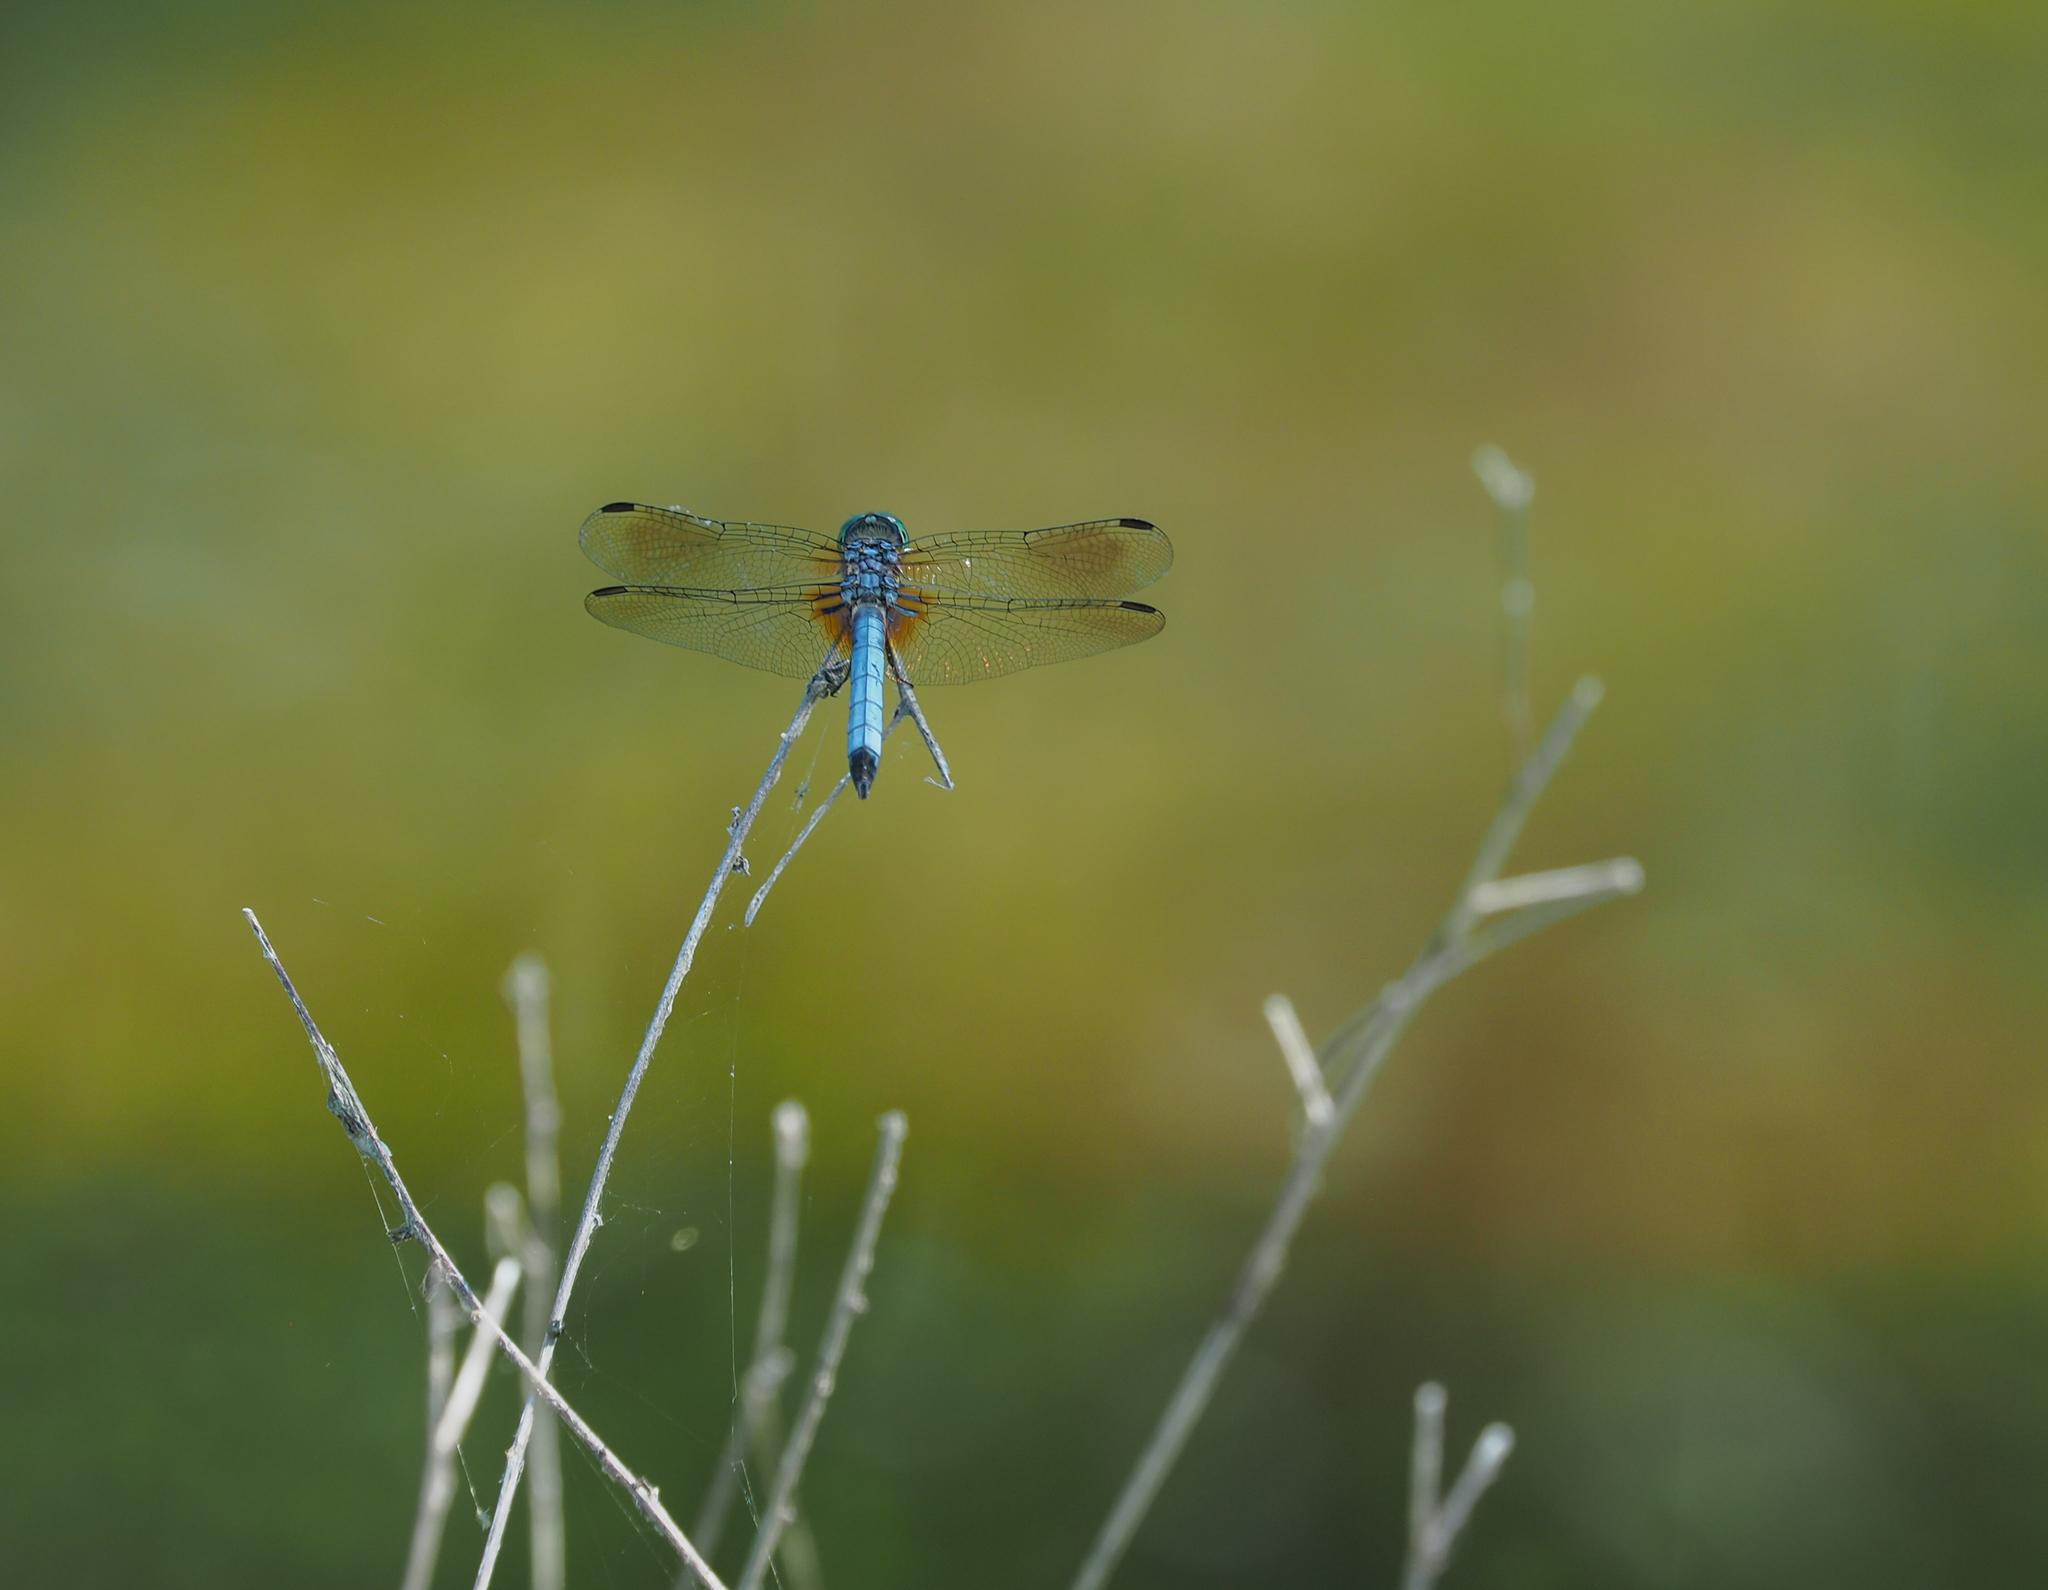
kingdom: Animalia
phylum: Arthropoda
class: Insecta
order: Odonata
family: Libellulidae
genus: Pachydiplax
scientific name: Pachydiplax longipennis
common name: Blue dasher
